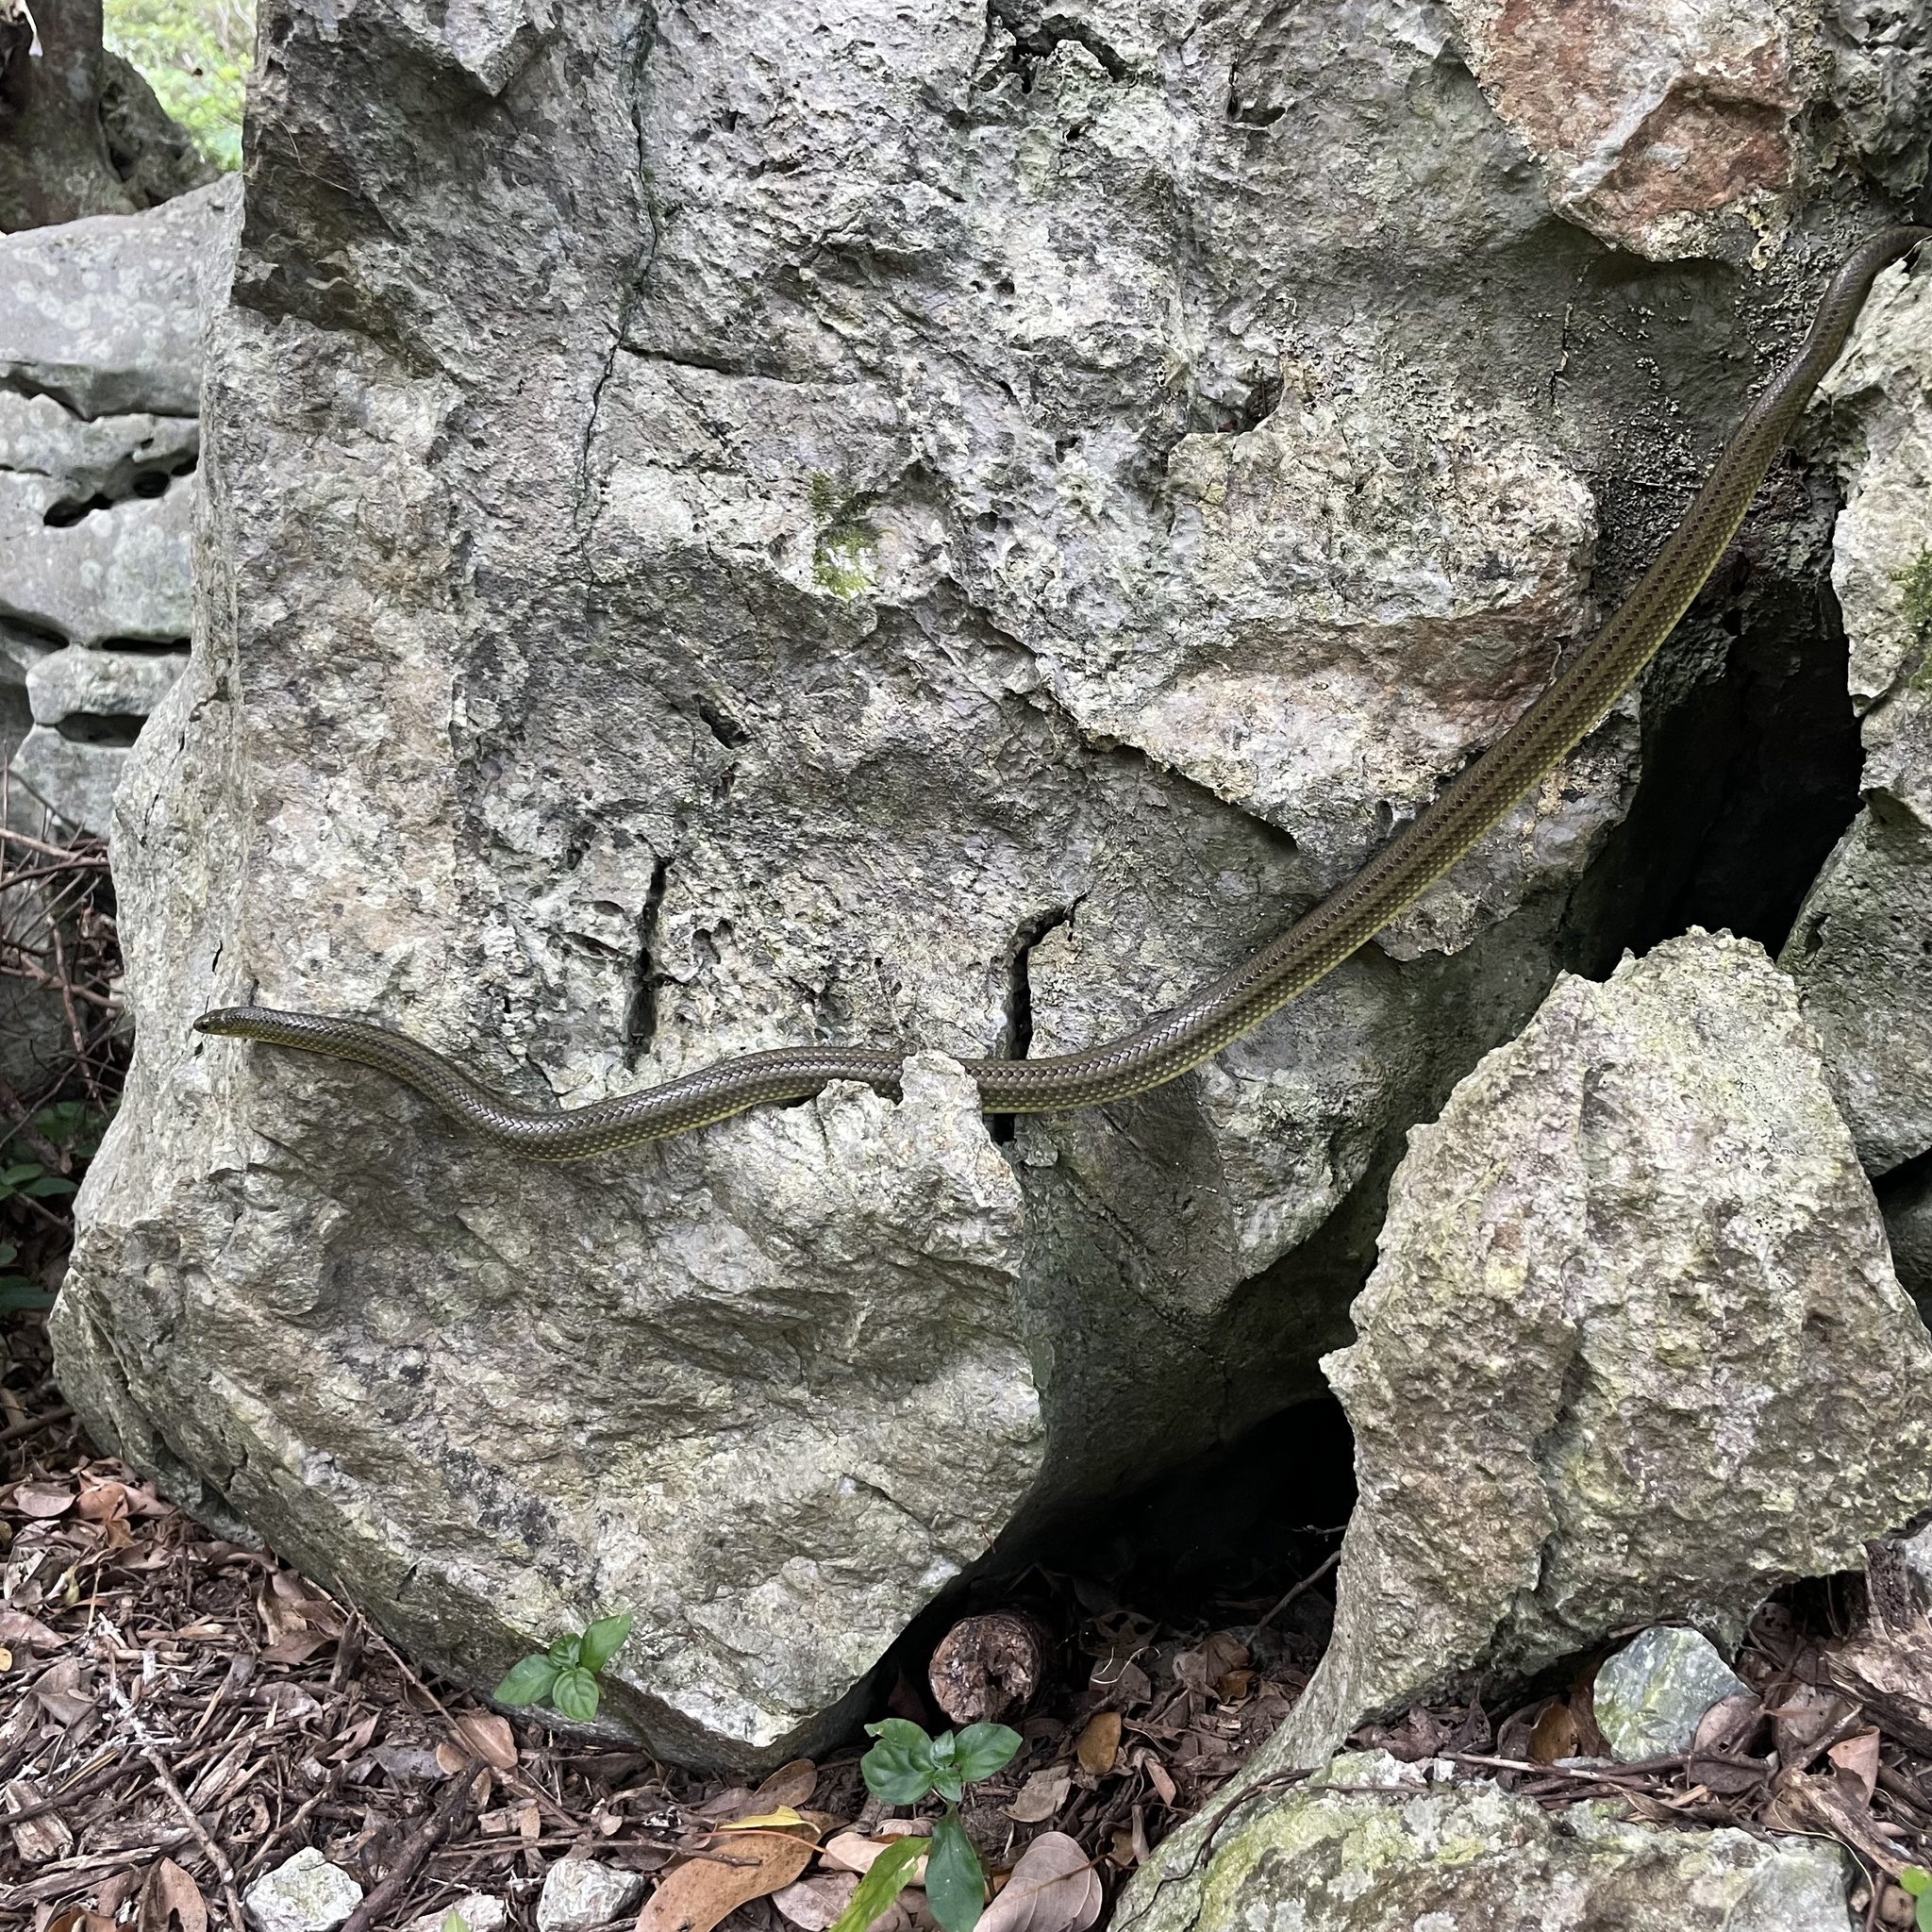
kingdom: Animalia
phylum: Chordata
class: Squamata
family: Colubridae
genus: Ptyas
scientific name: Ptyas semicarinata
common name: Ryukyu green snake
